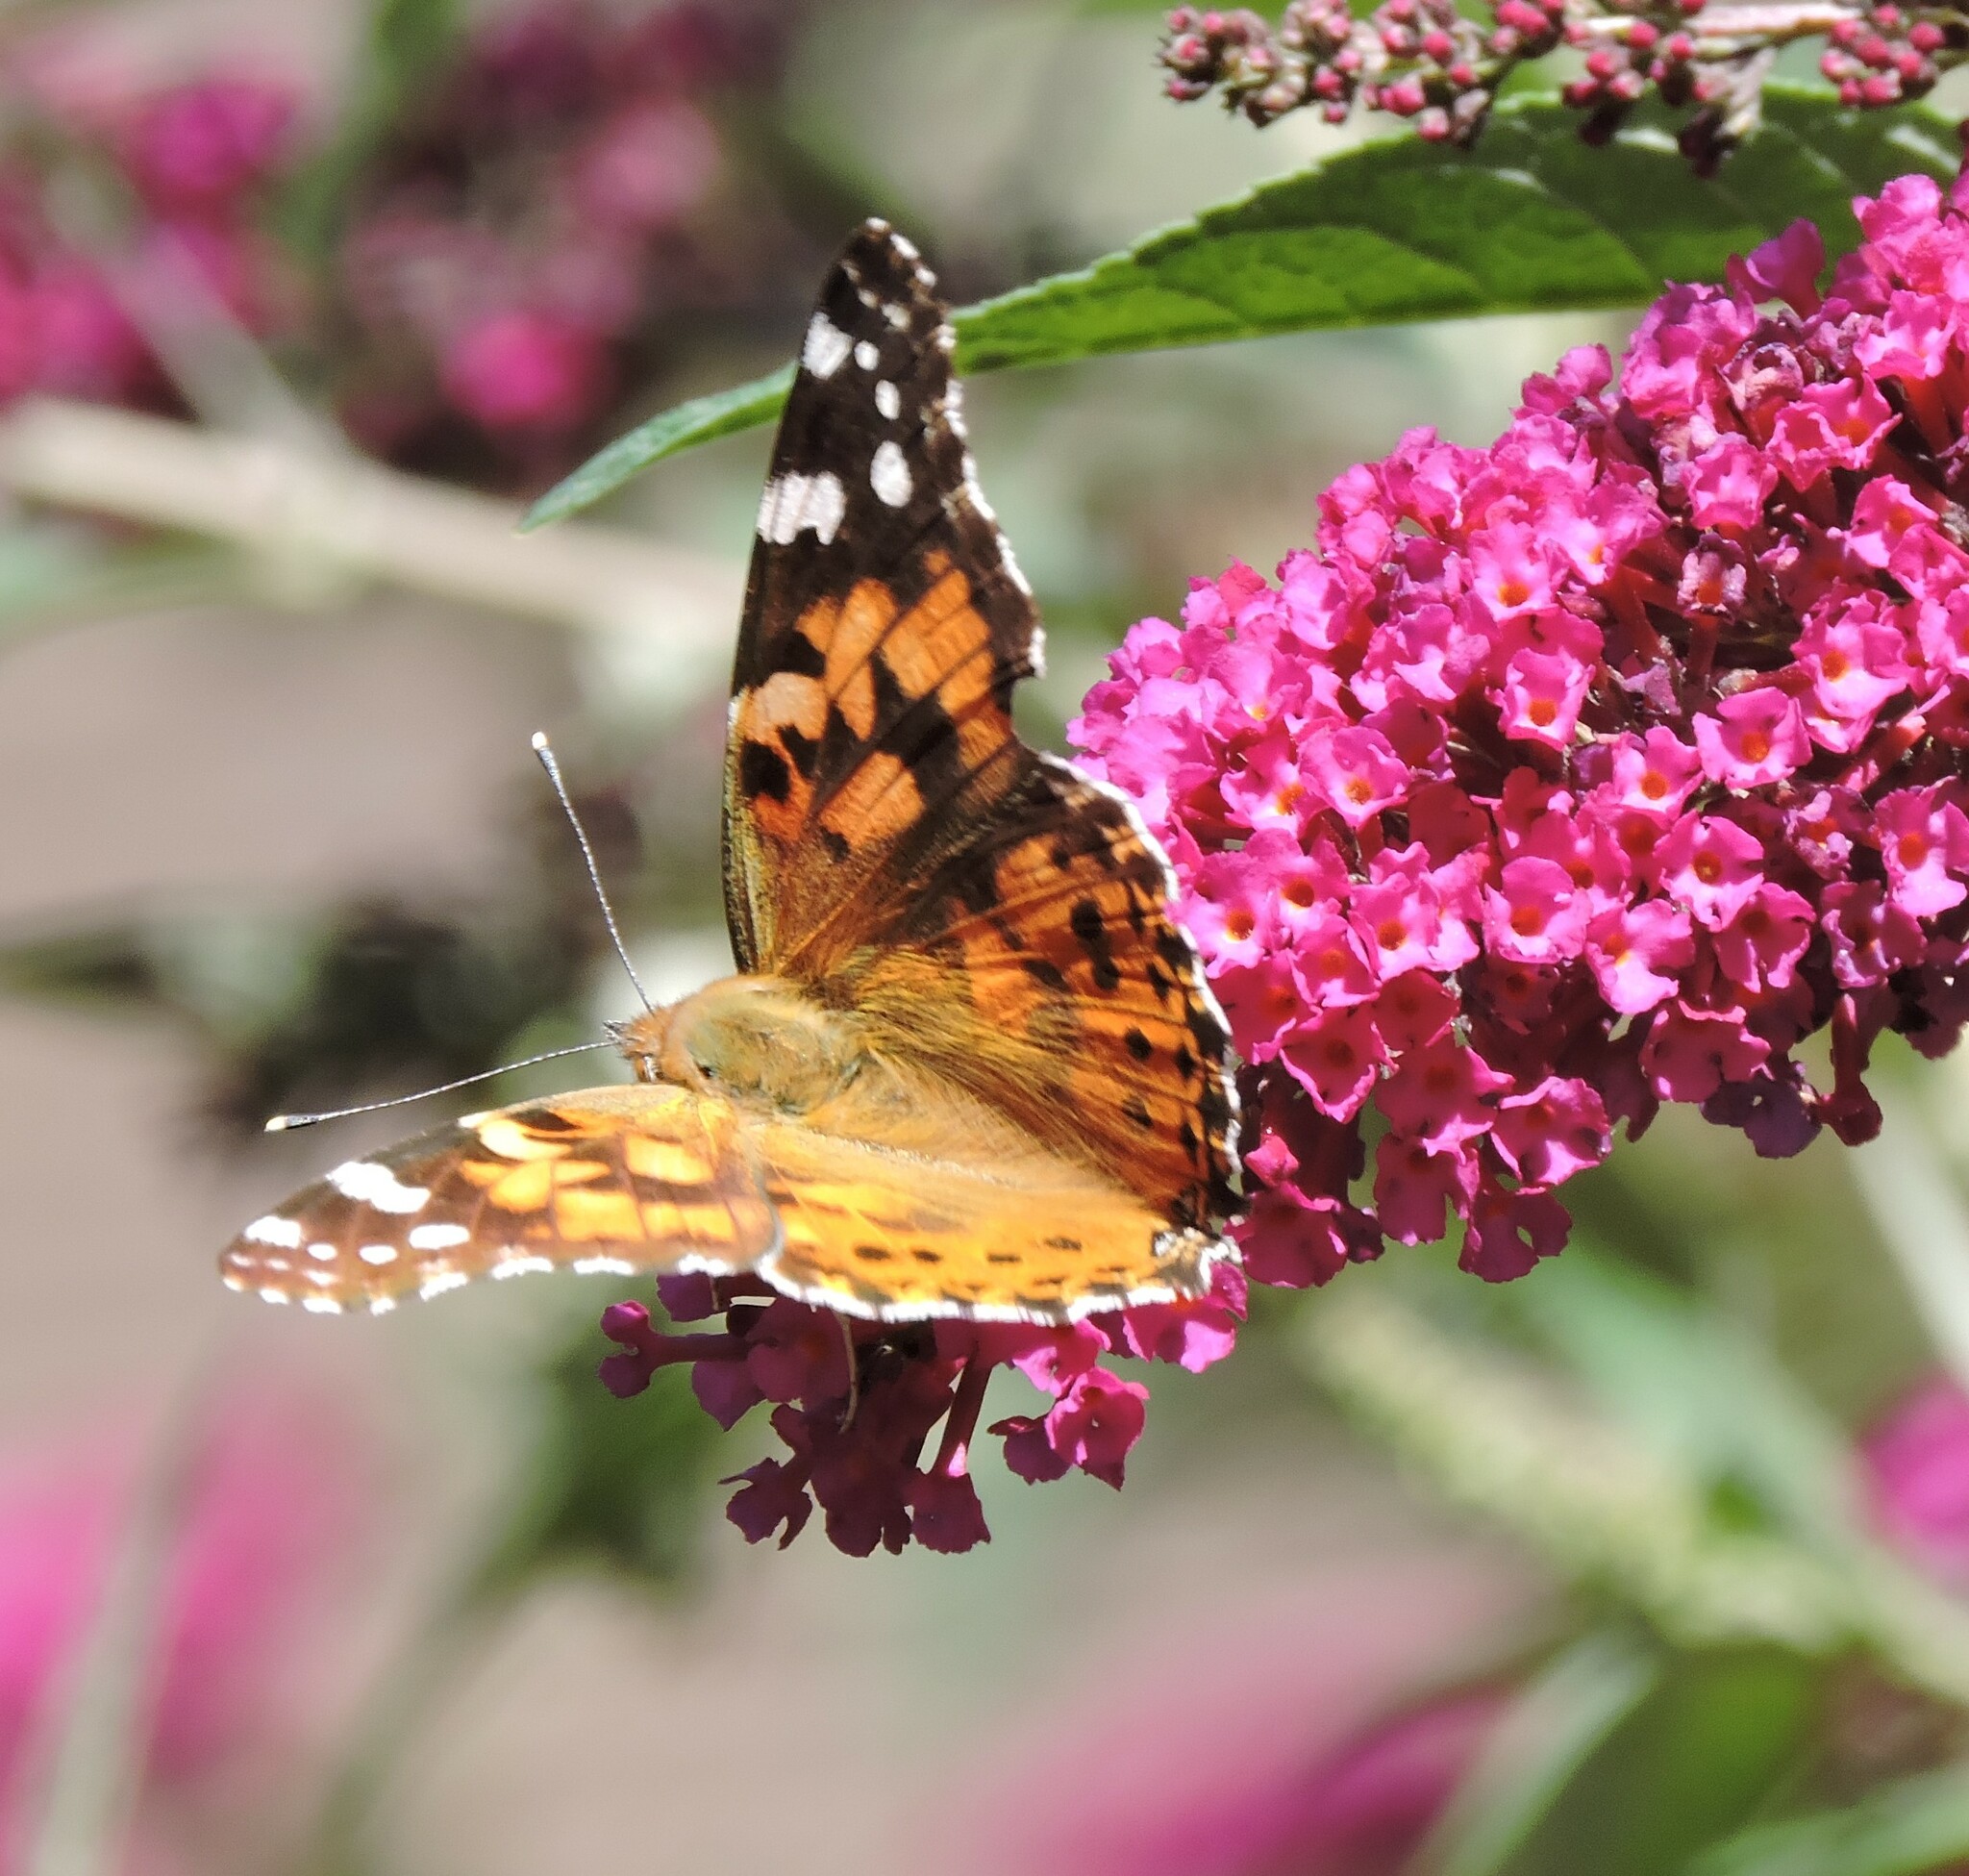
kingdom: Animalia
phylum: Arthropoda
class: Insecta
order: Lepidoptera
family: Nymphalidae
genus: Vanessa
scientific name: Vanessa cardui
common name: Painted lady
